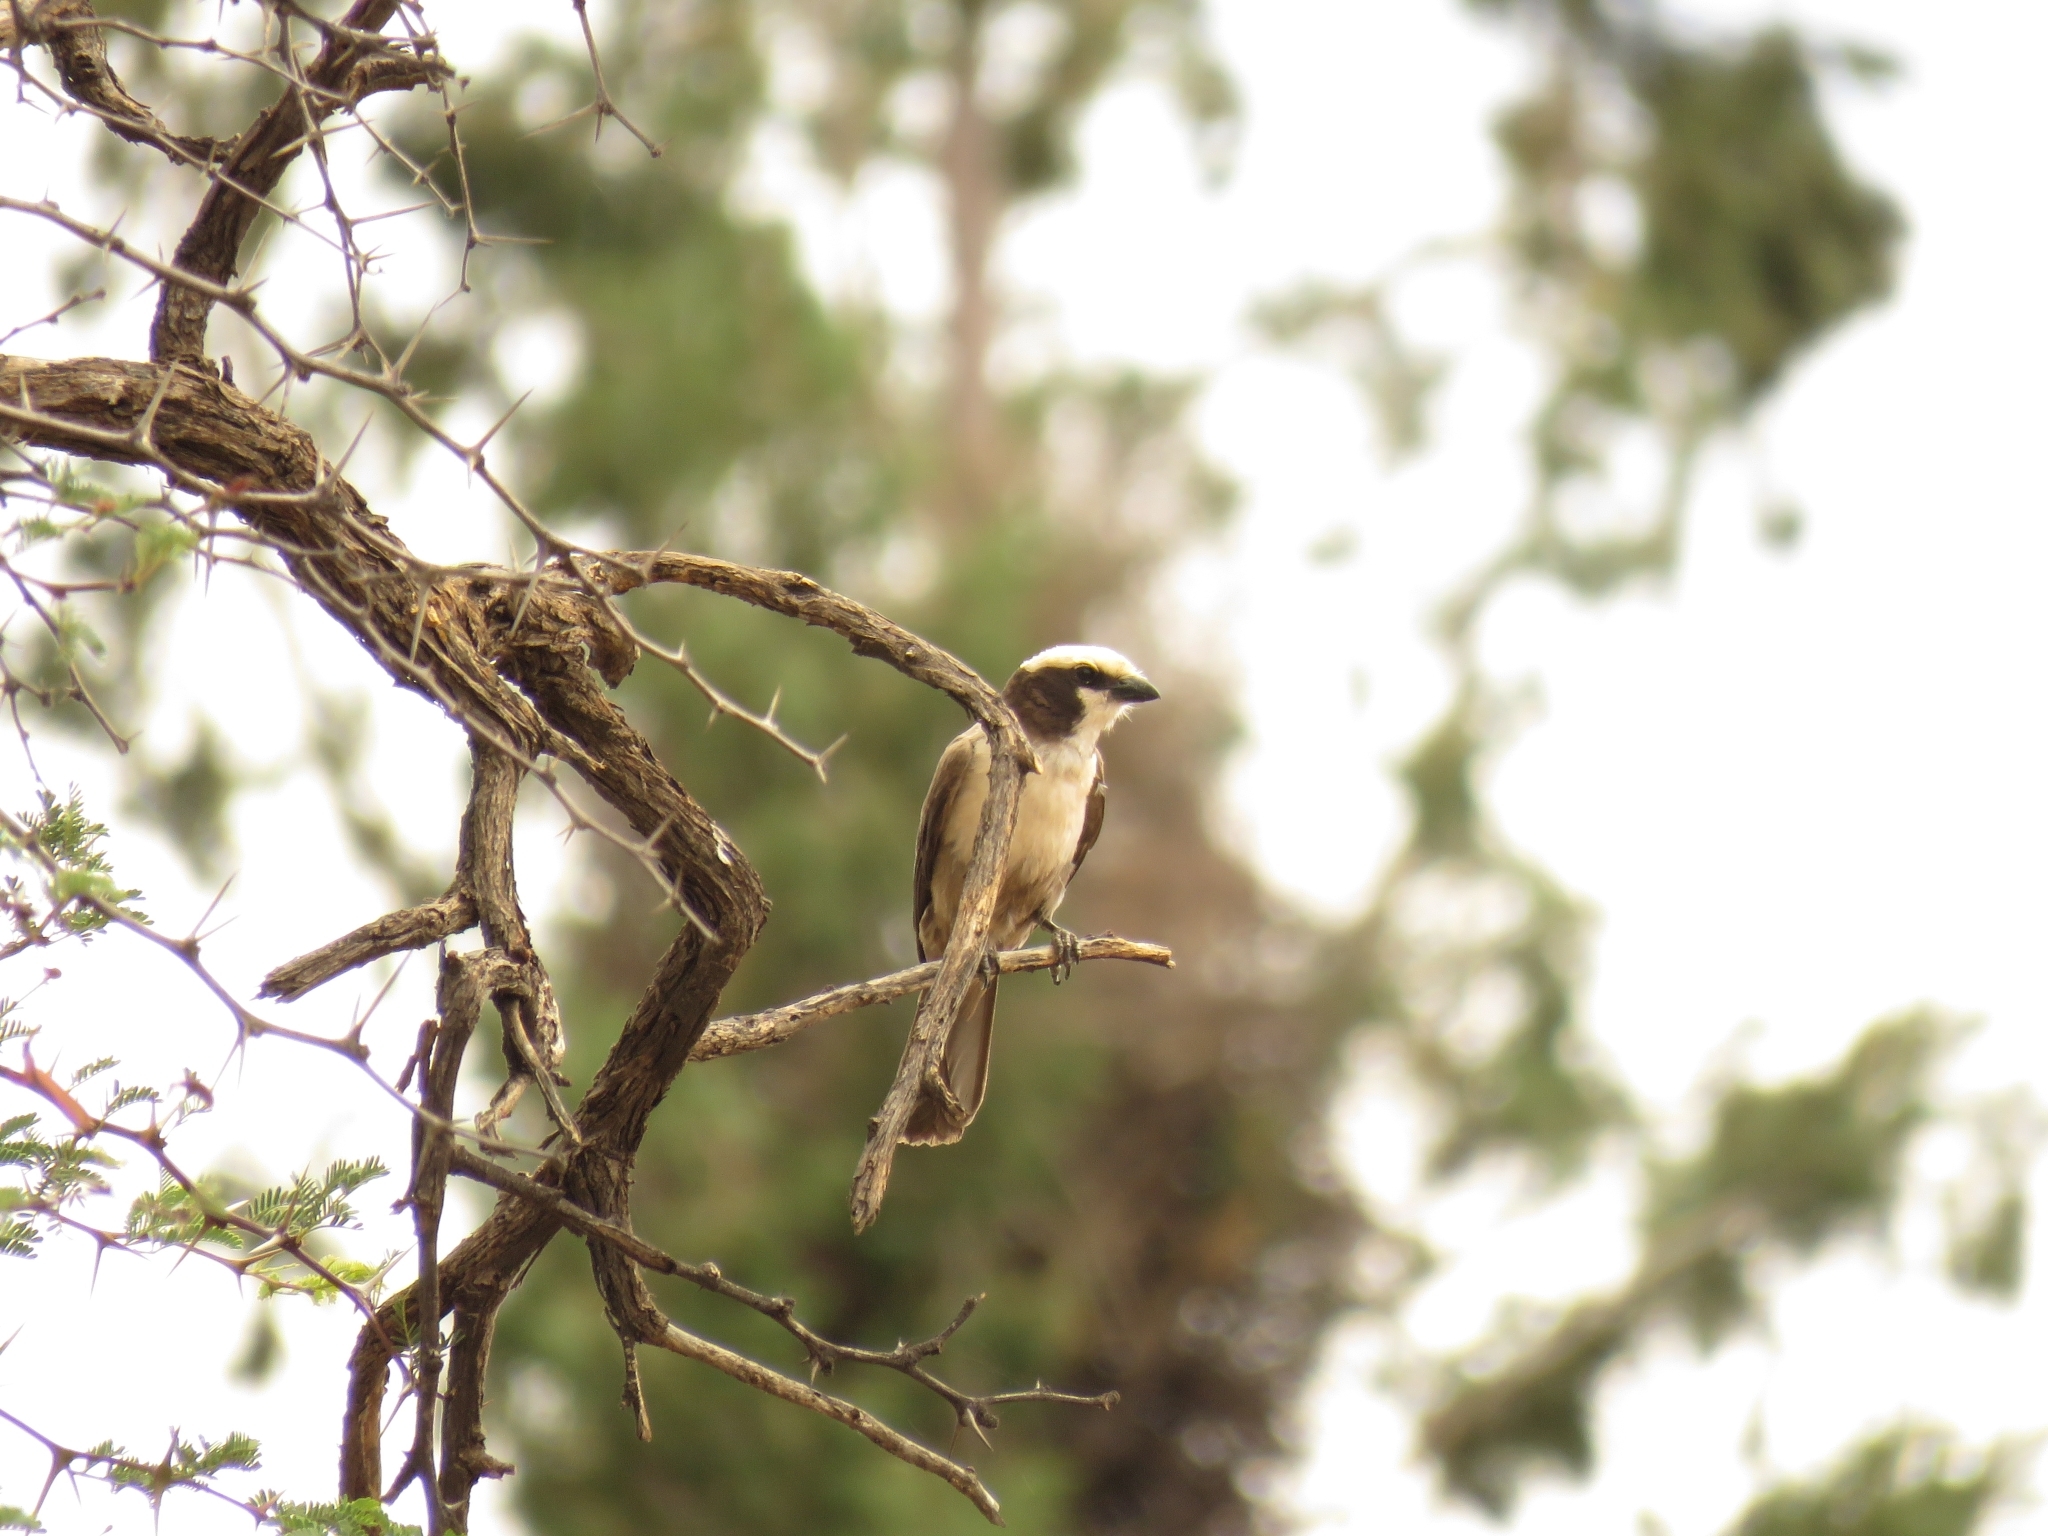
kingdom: Animalia
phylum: Chordata
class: Aves
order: Passeriformes
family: Laniidae
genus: Eurocephalus
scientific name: Eurocephalus anguitimens
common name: Southern white-crowned shrike
